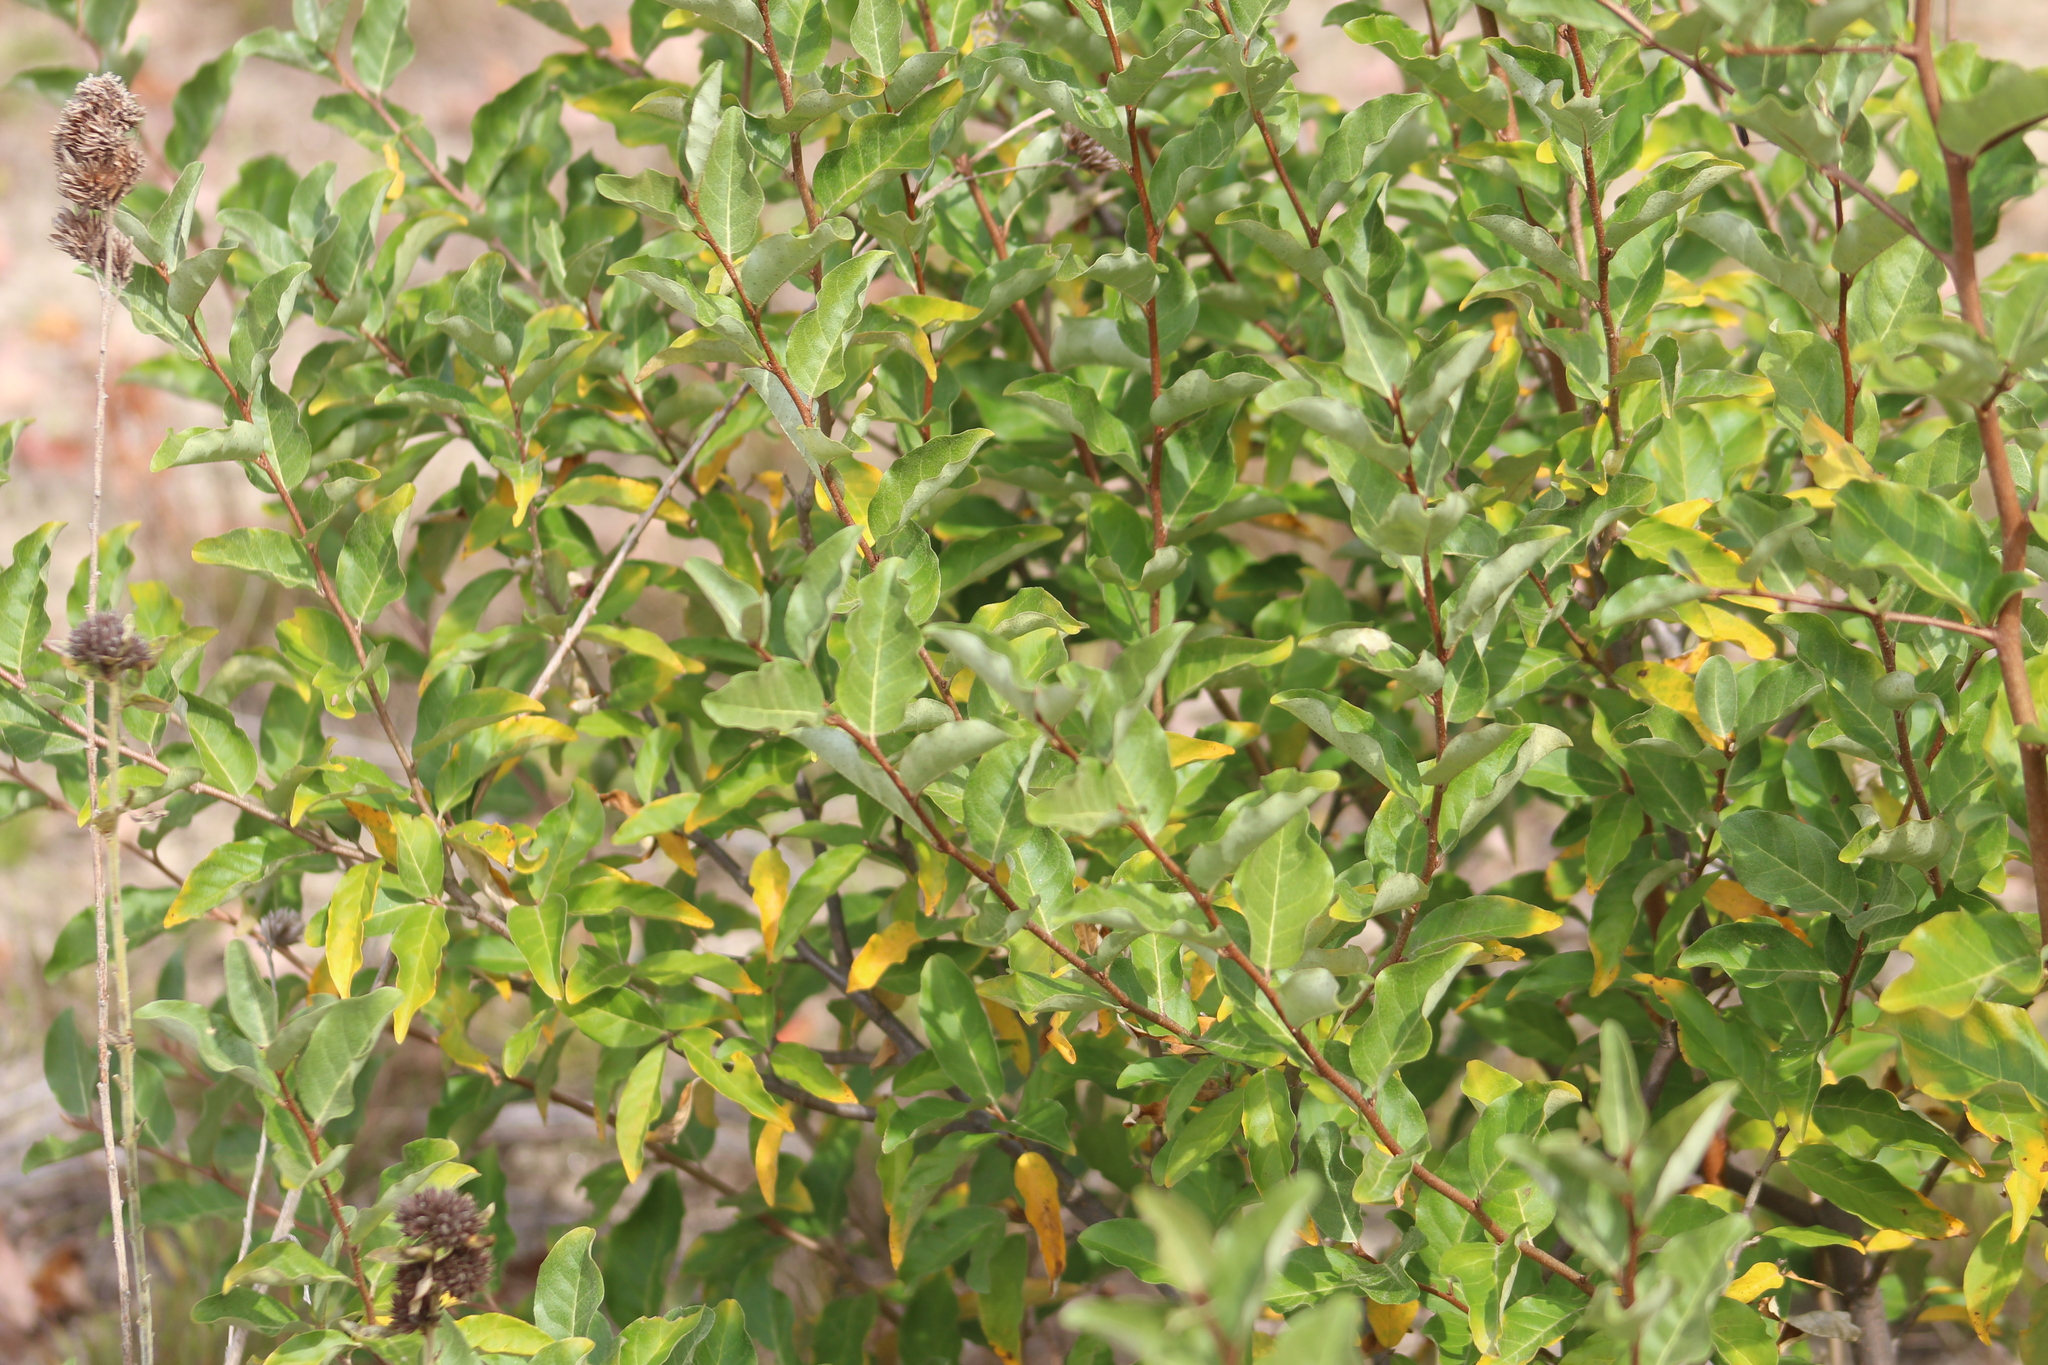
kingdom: Plantae
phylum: Tracheophyta
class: Magnoliopsida
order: Rosales
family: Elaeagnaceae
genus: Elaeagnus
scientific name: Elaeagnus umbellata
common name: Autumn olive
